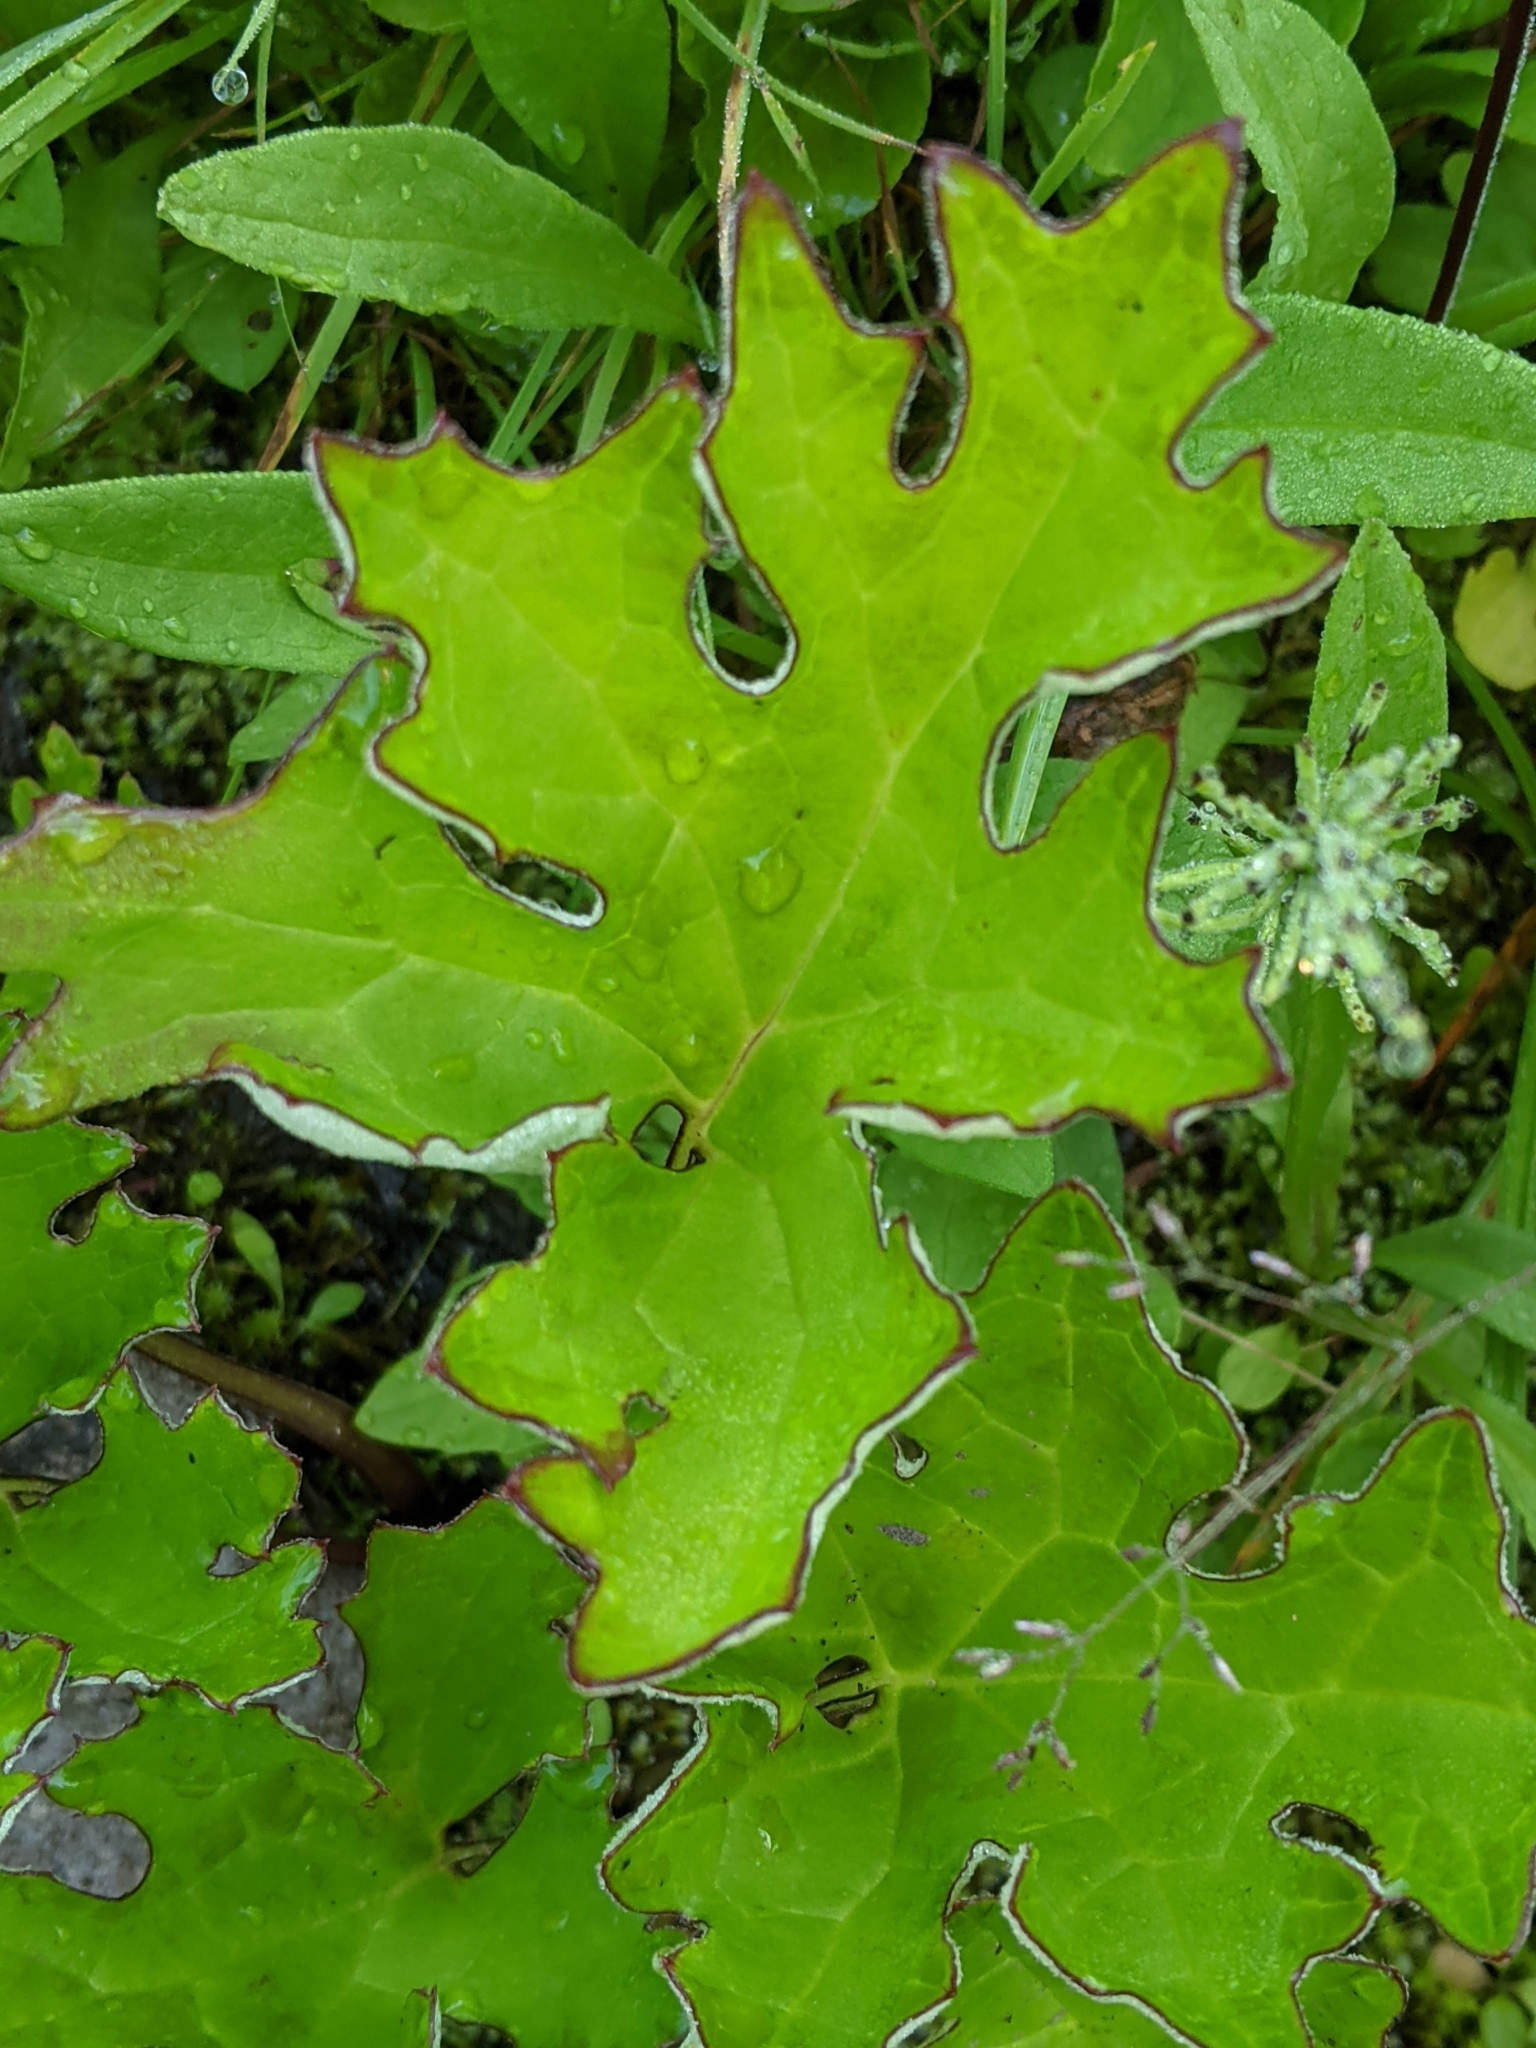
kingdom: Plantae
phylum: Tracheophyta
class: Magnoliopsida
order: Asterales
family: Asteraceae
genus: Petasites
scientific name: Petasites frigidus
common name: Arctic butterbur
